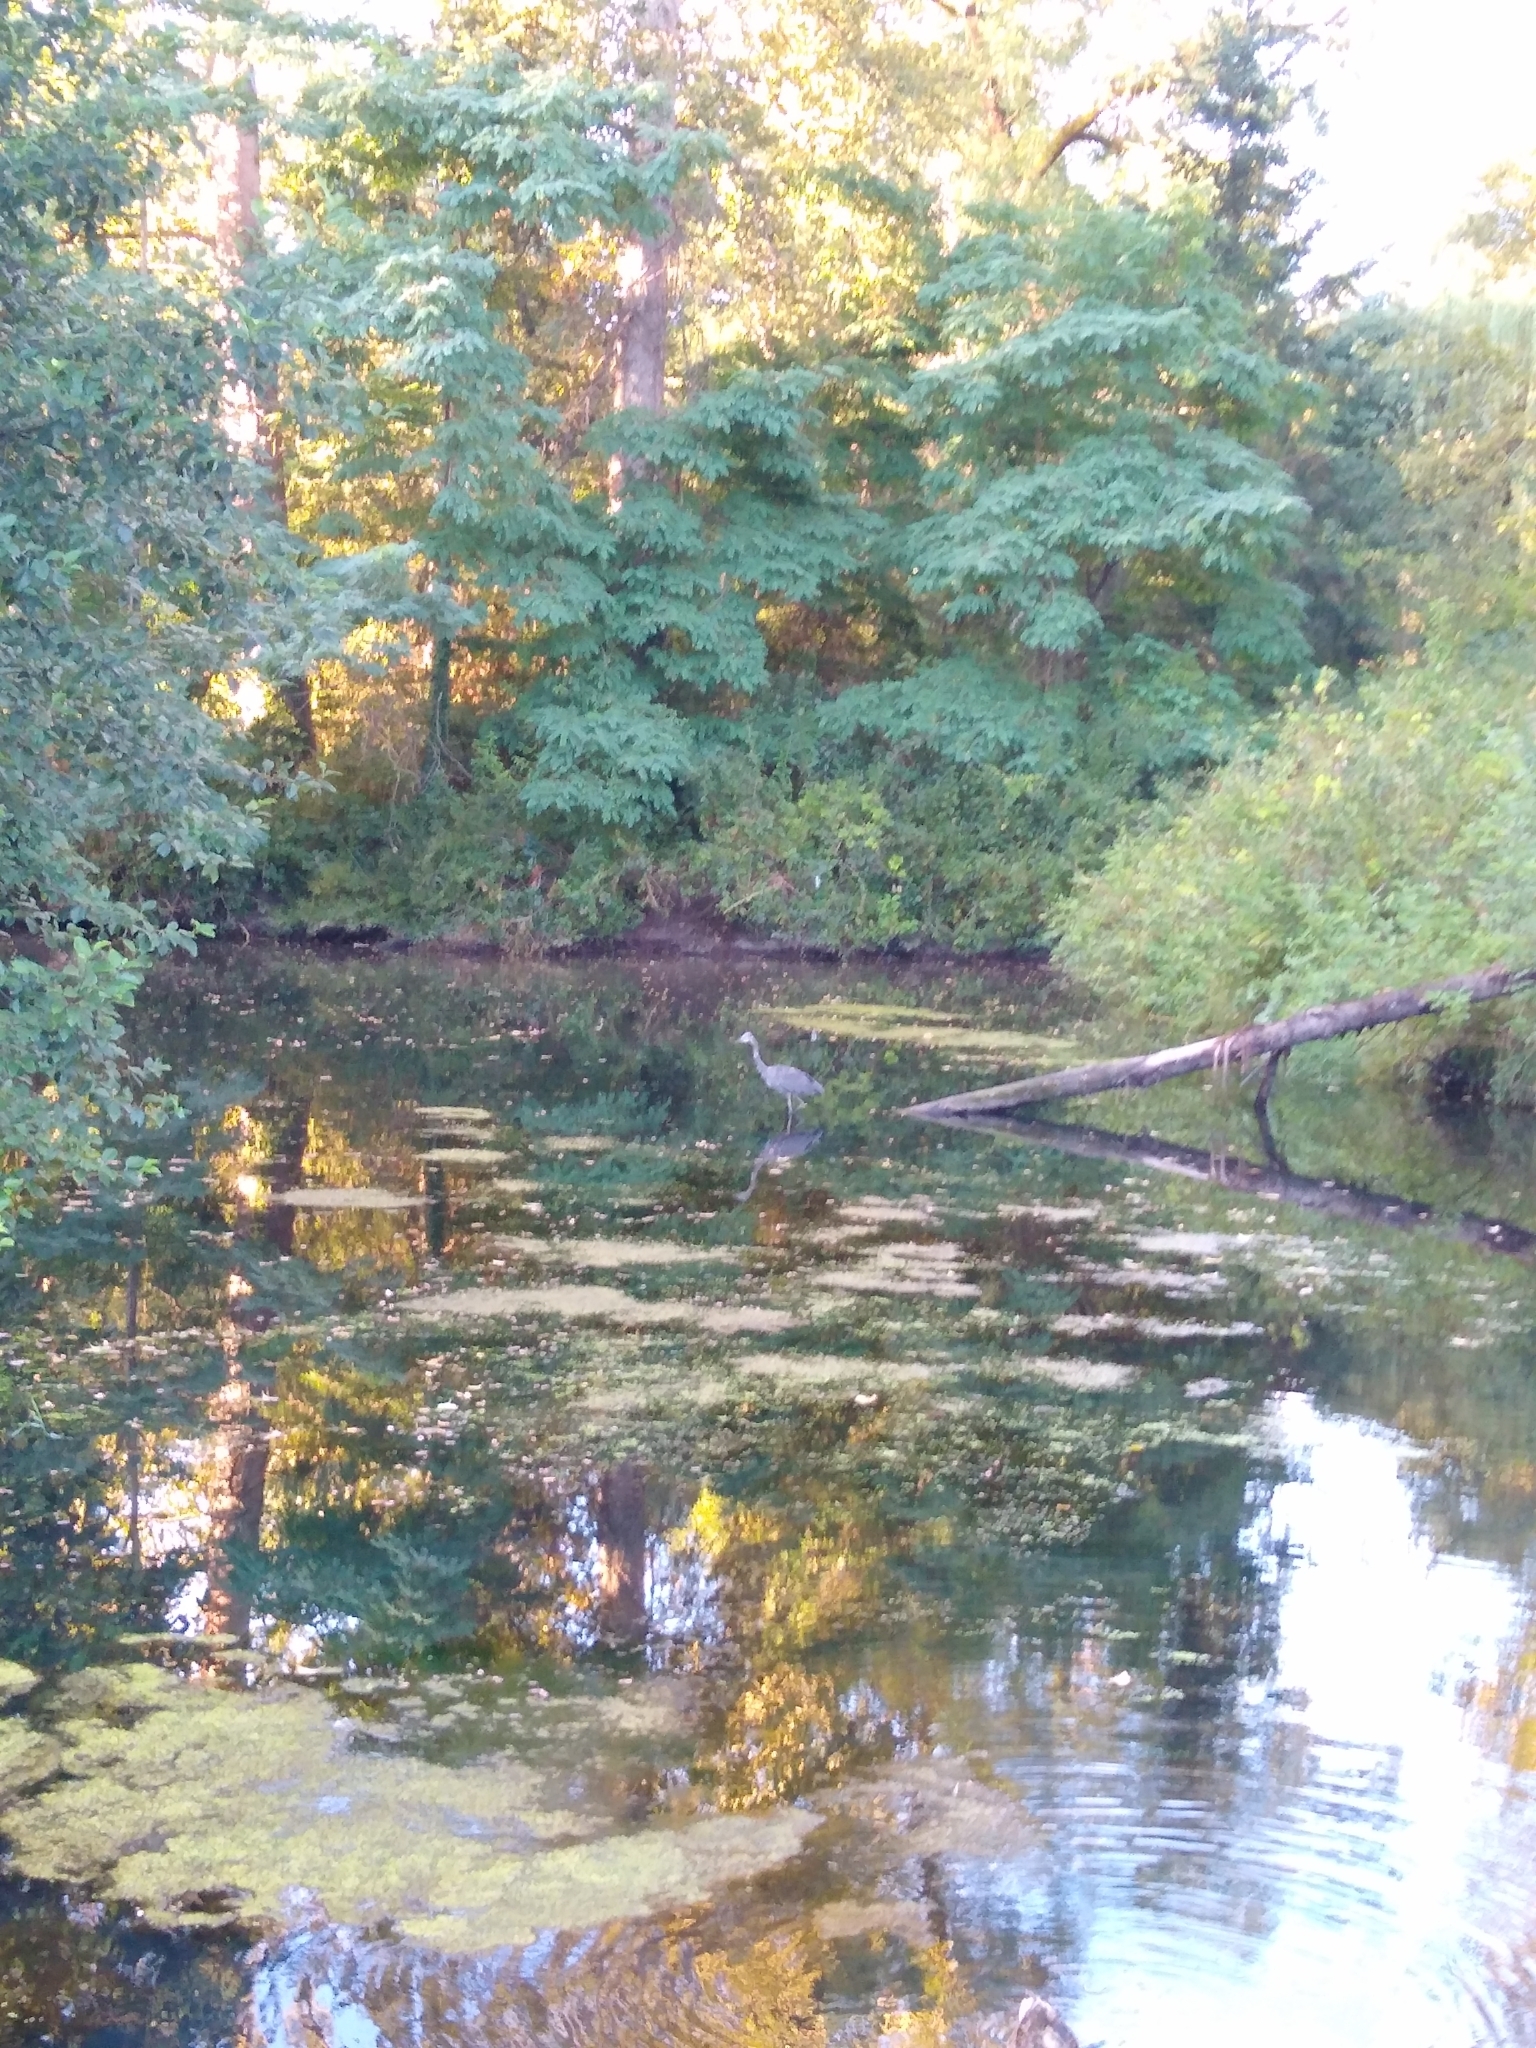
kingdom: Animalia
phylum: Chordata
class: Aves
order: Pelecaniformes
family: Ardeidae
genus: Ardea
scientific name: Ardea herodias
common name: Great blue heron
